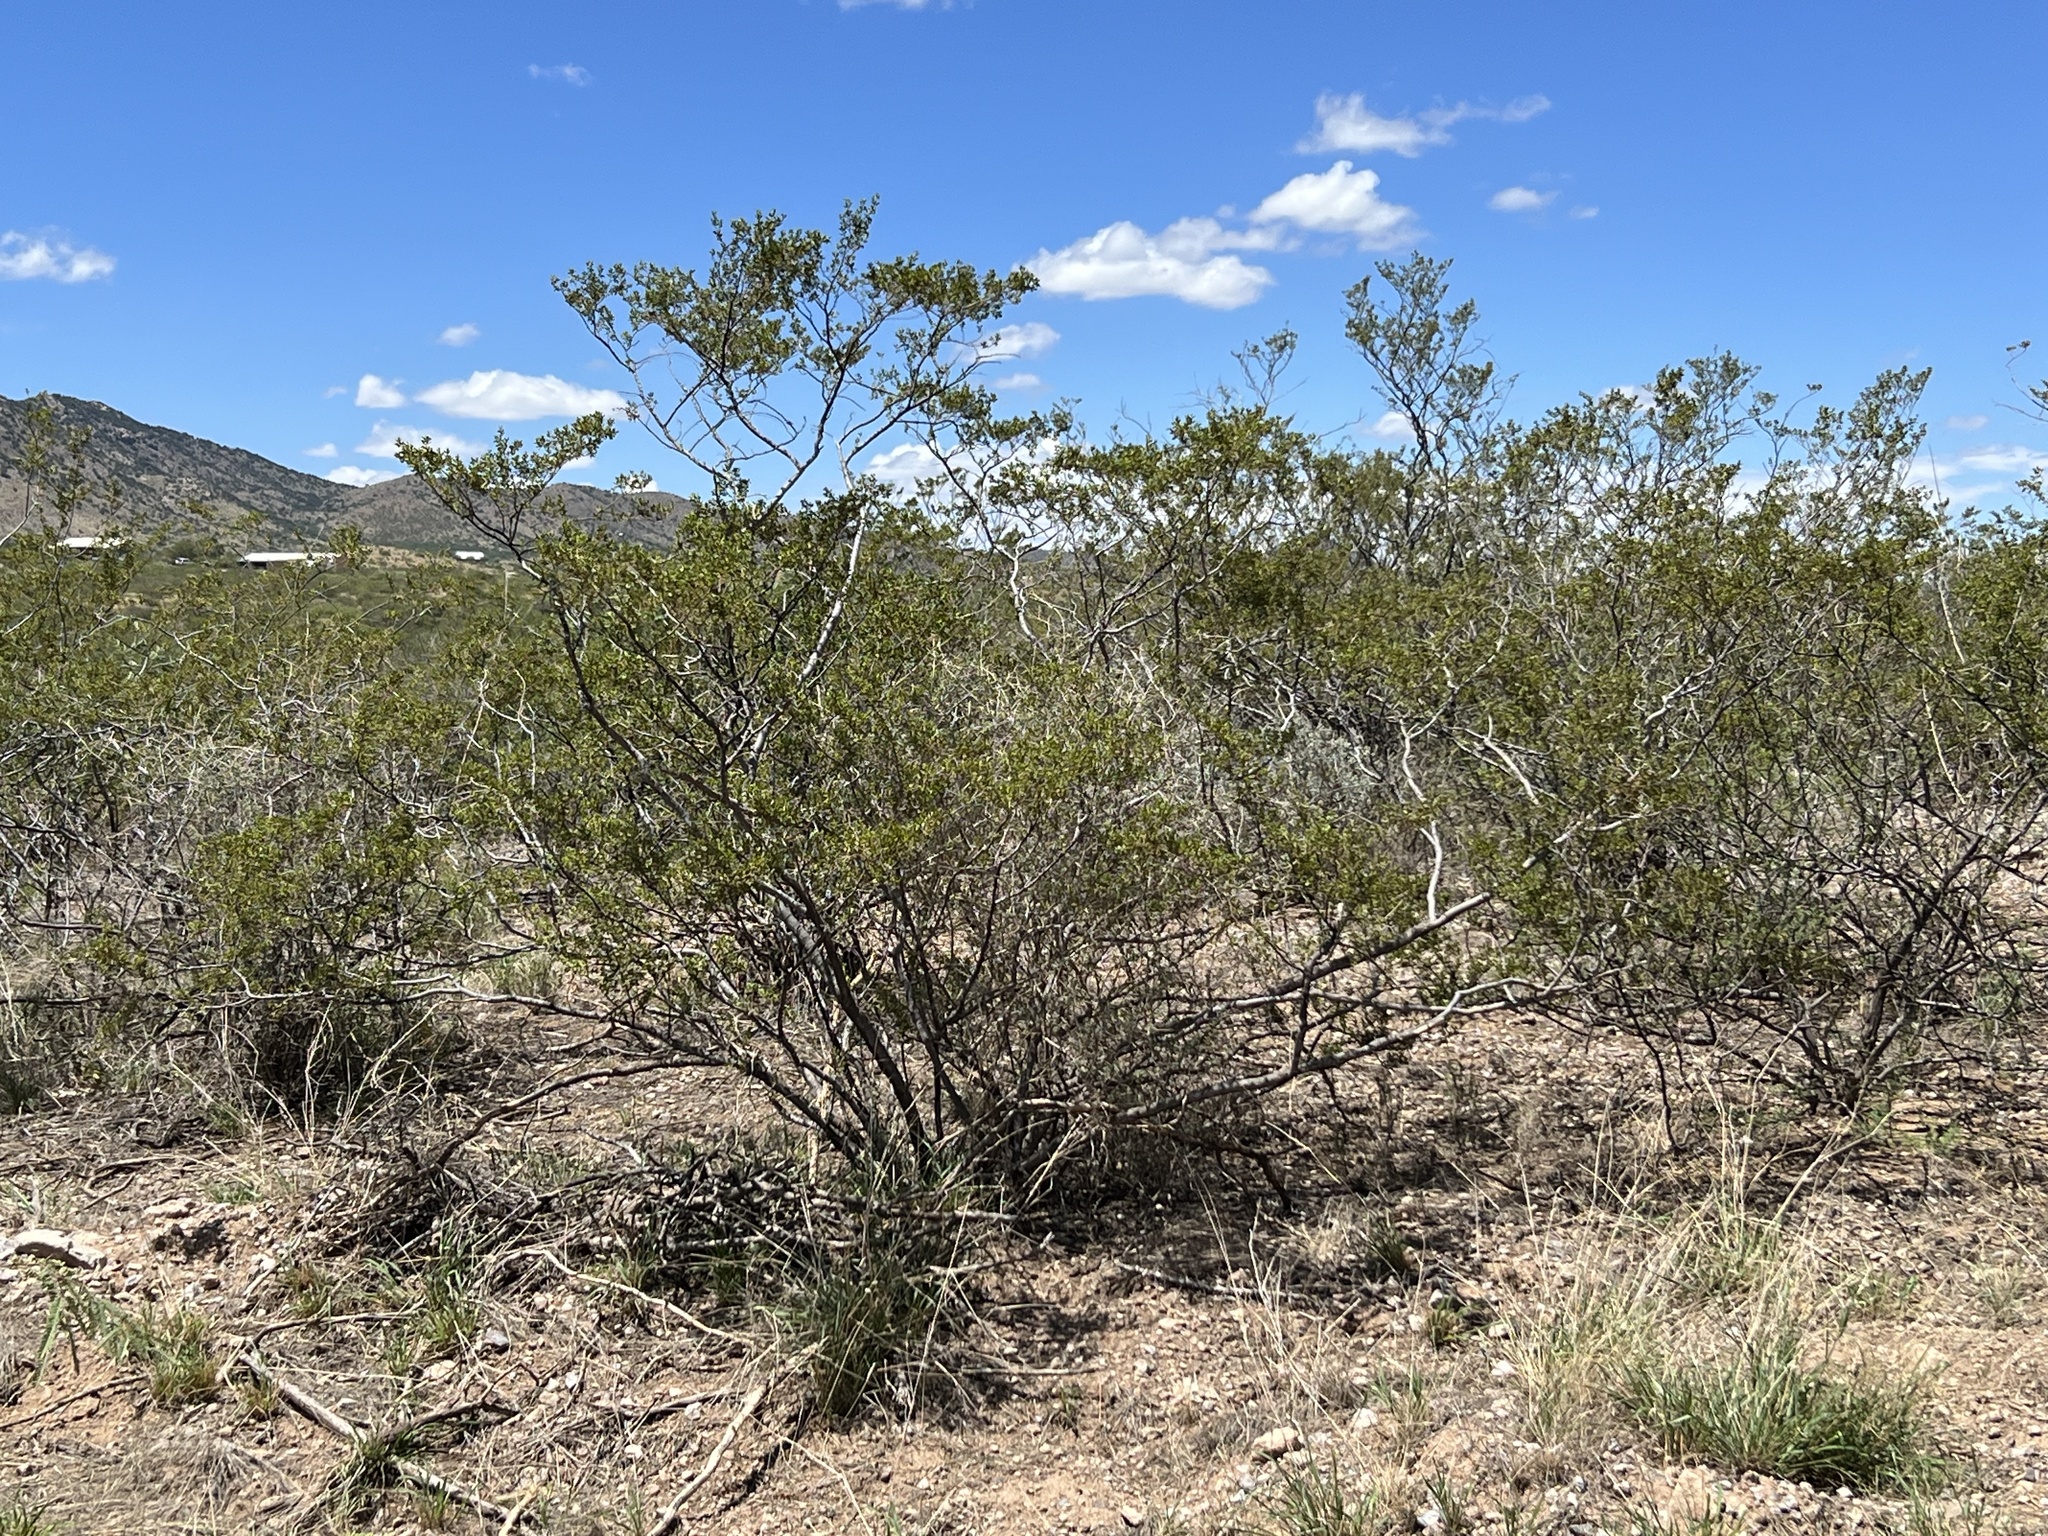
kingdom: Plantae
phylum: Tracheophyta
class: Magnoliopsida
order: Zygophyllales
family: Zygophyllaceae
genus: Larrea
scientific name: Larrea tridentata
